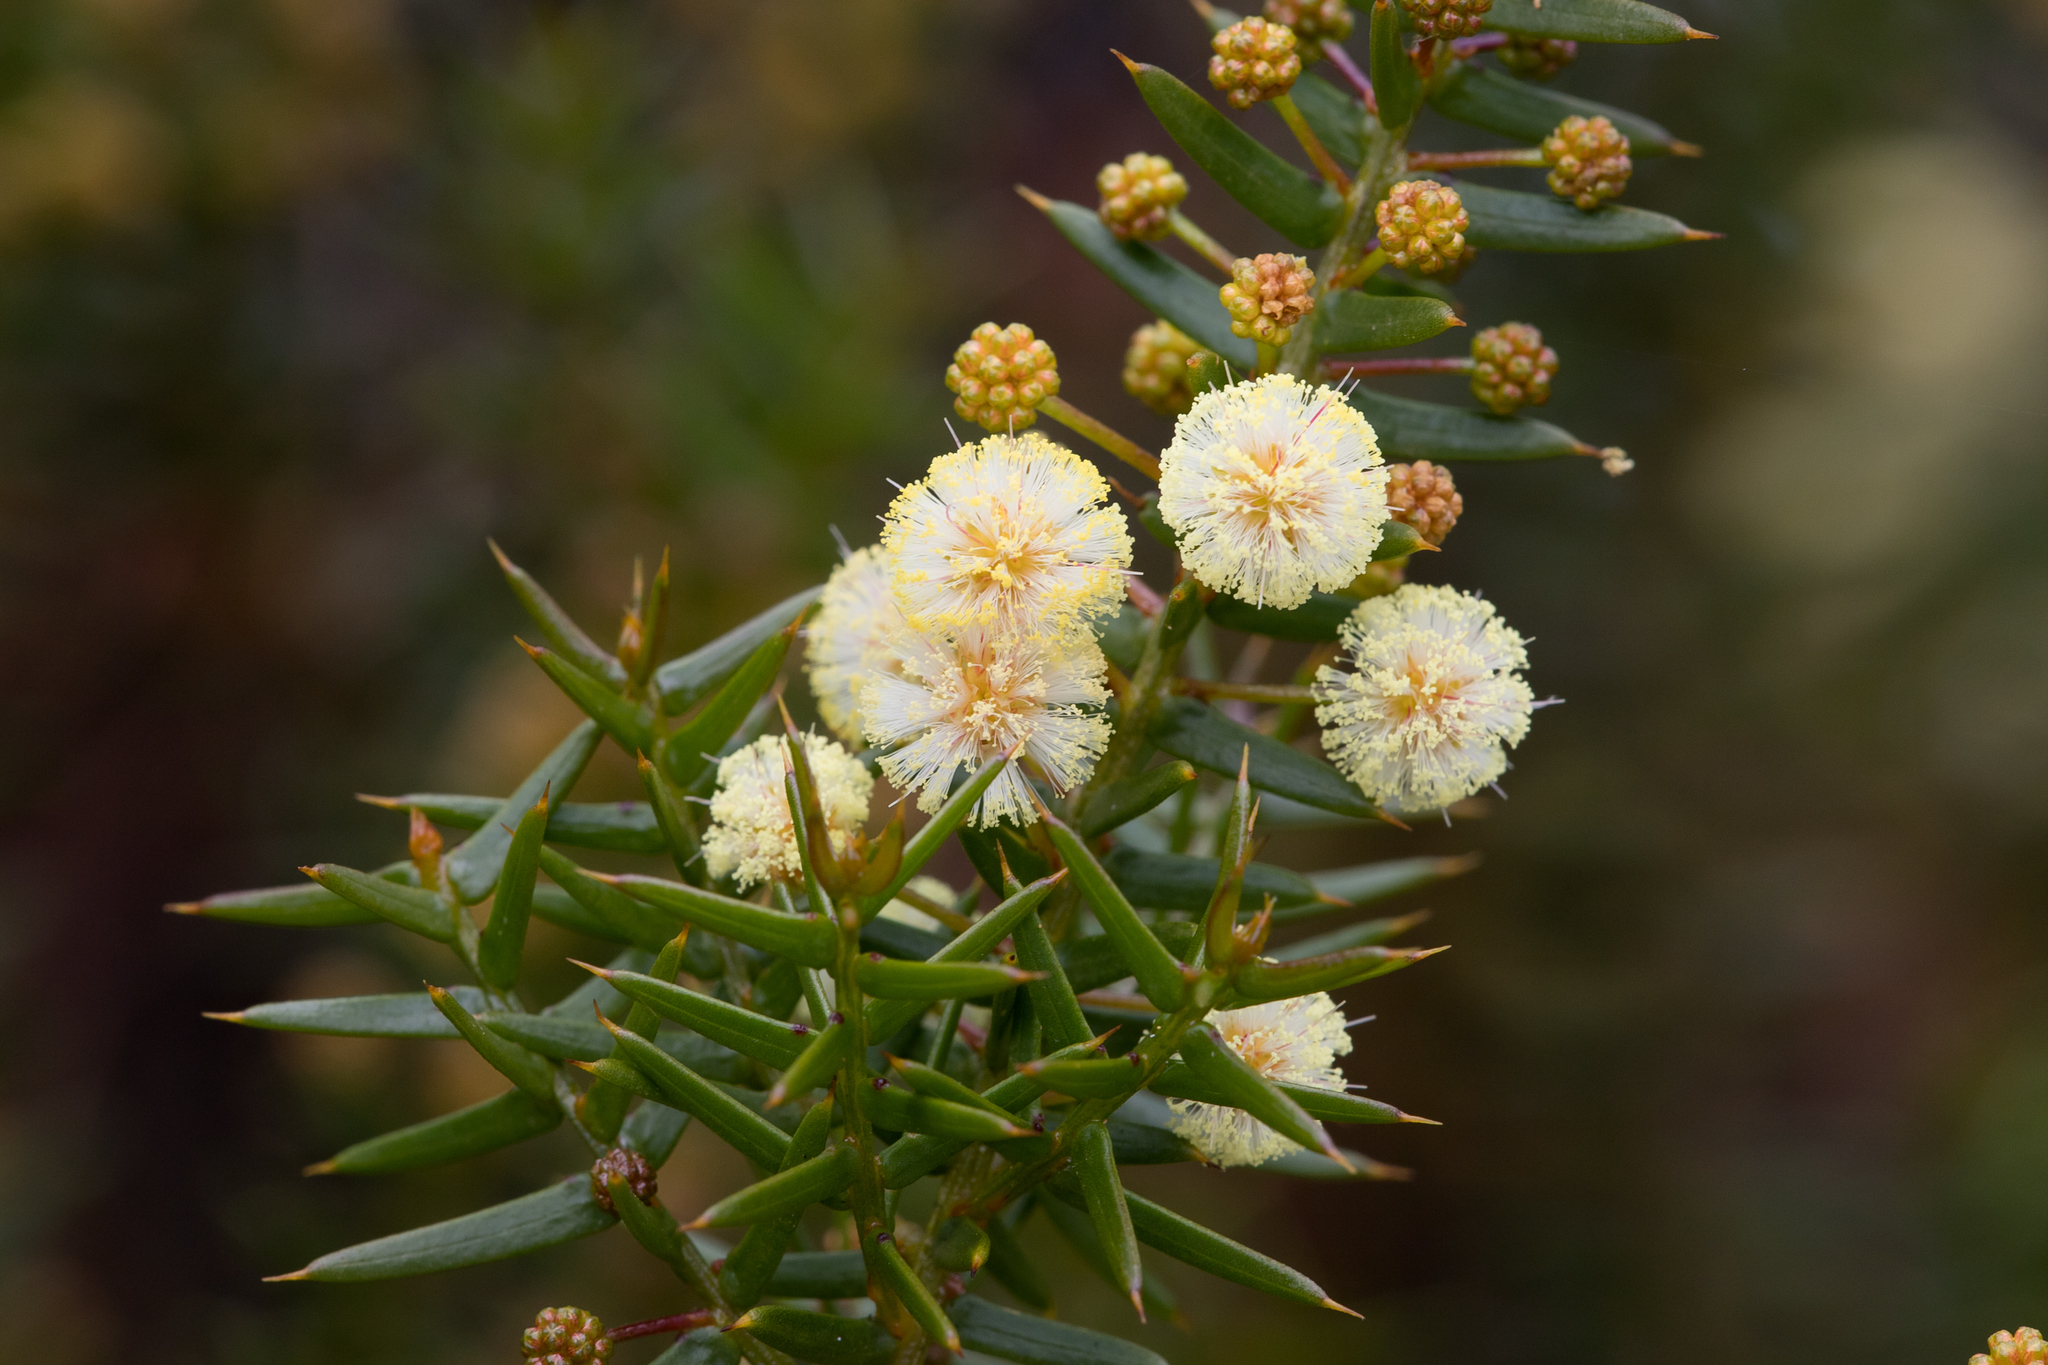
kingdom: Plantae
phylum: Tracheophyta
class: Magnoliopsida
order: Fabales
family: Fabaceae
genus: Acacia
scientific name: Acacia rupicola
